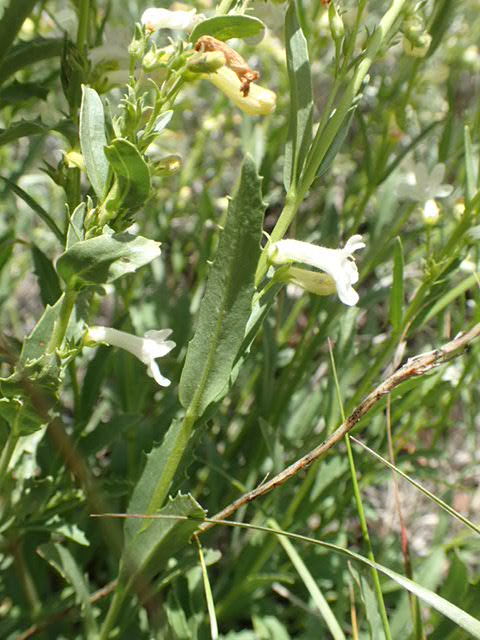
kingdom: Plantae
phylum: Tracheophyta
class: Magnoliopsida
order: Lamiales
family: Plantaginaceae
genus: Penstemon
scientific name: Penstemon deustus
